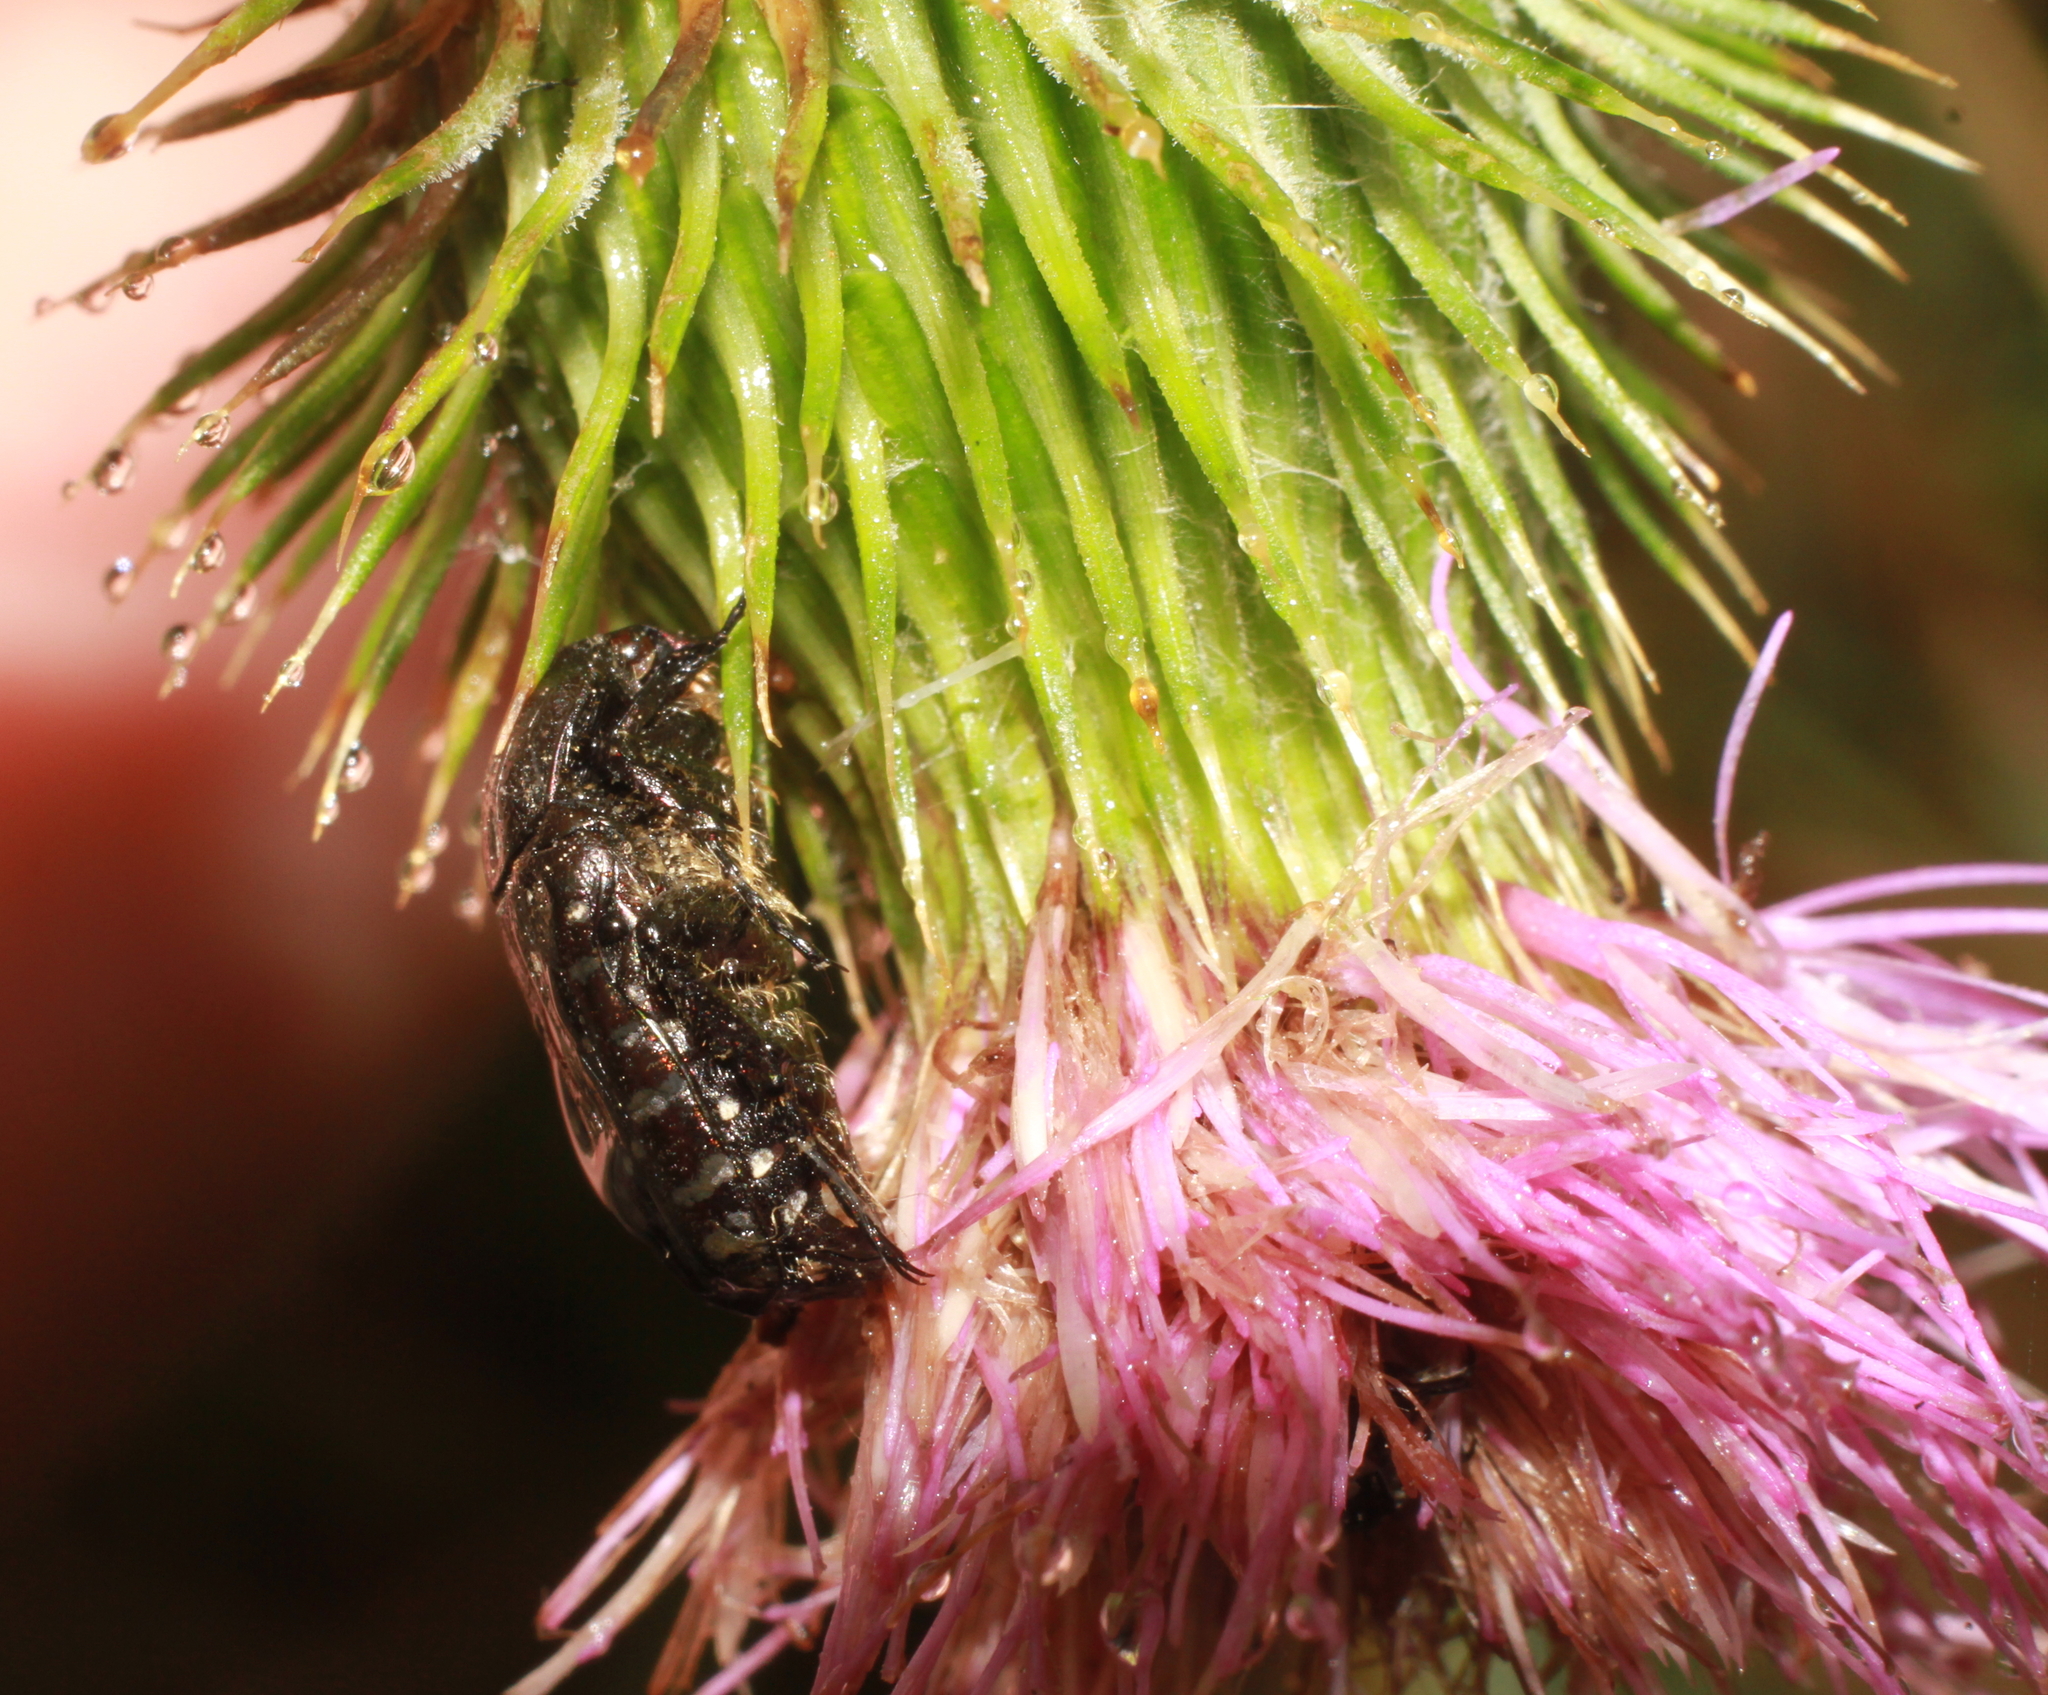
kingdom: Animalia
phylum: Arthropoda
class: Insecta
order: Coleoptera
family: Scarabaeidae
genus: Oxythyrea
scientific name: Oxythyrea funesta
